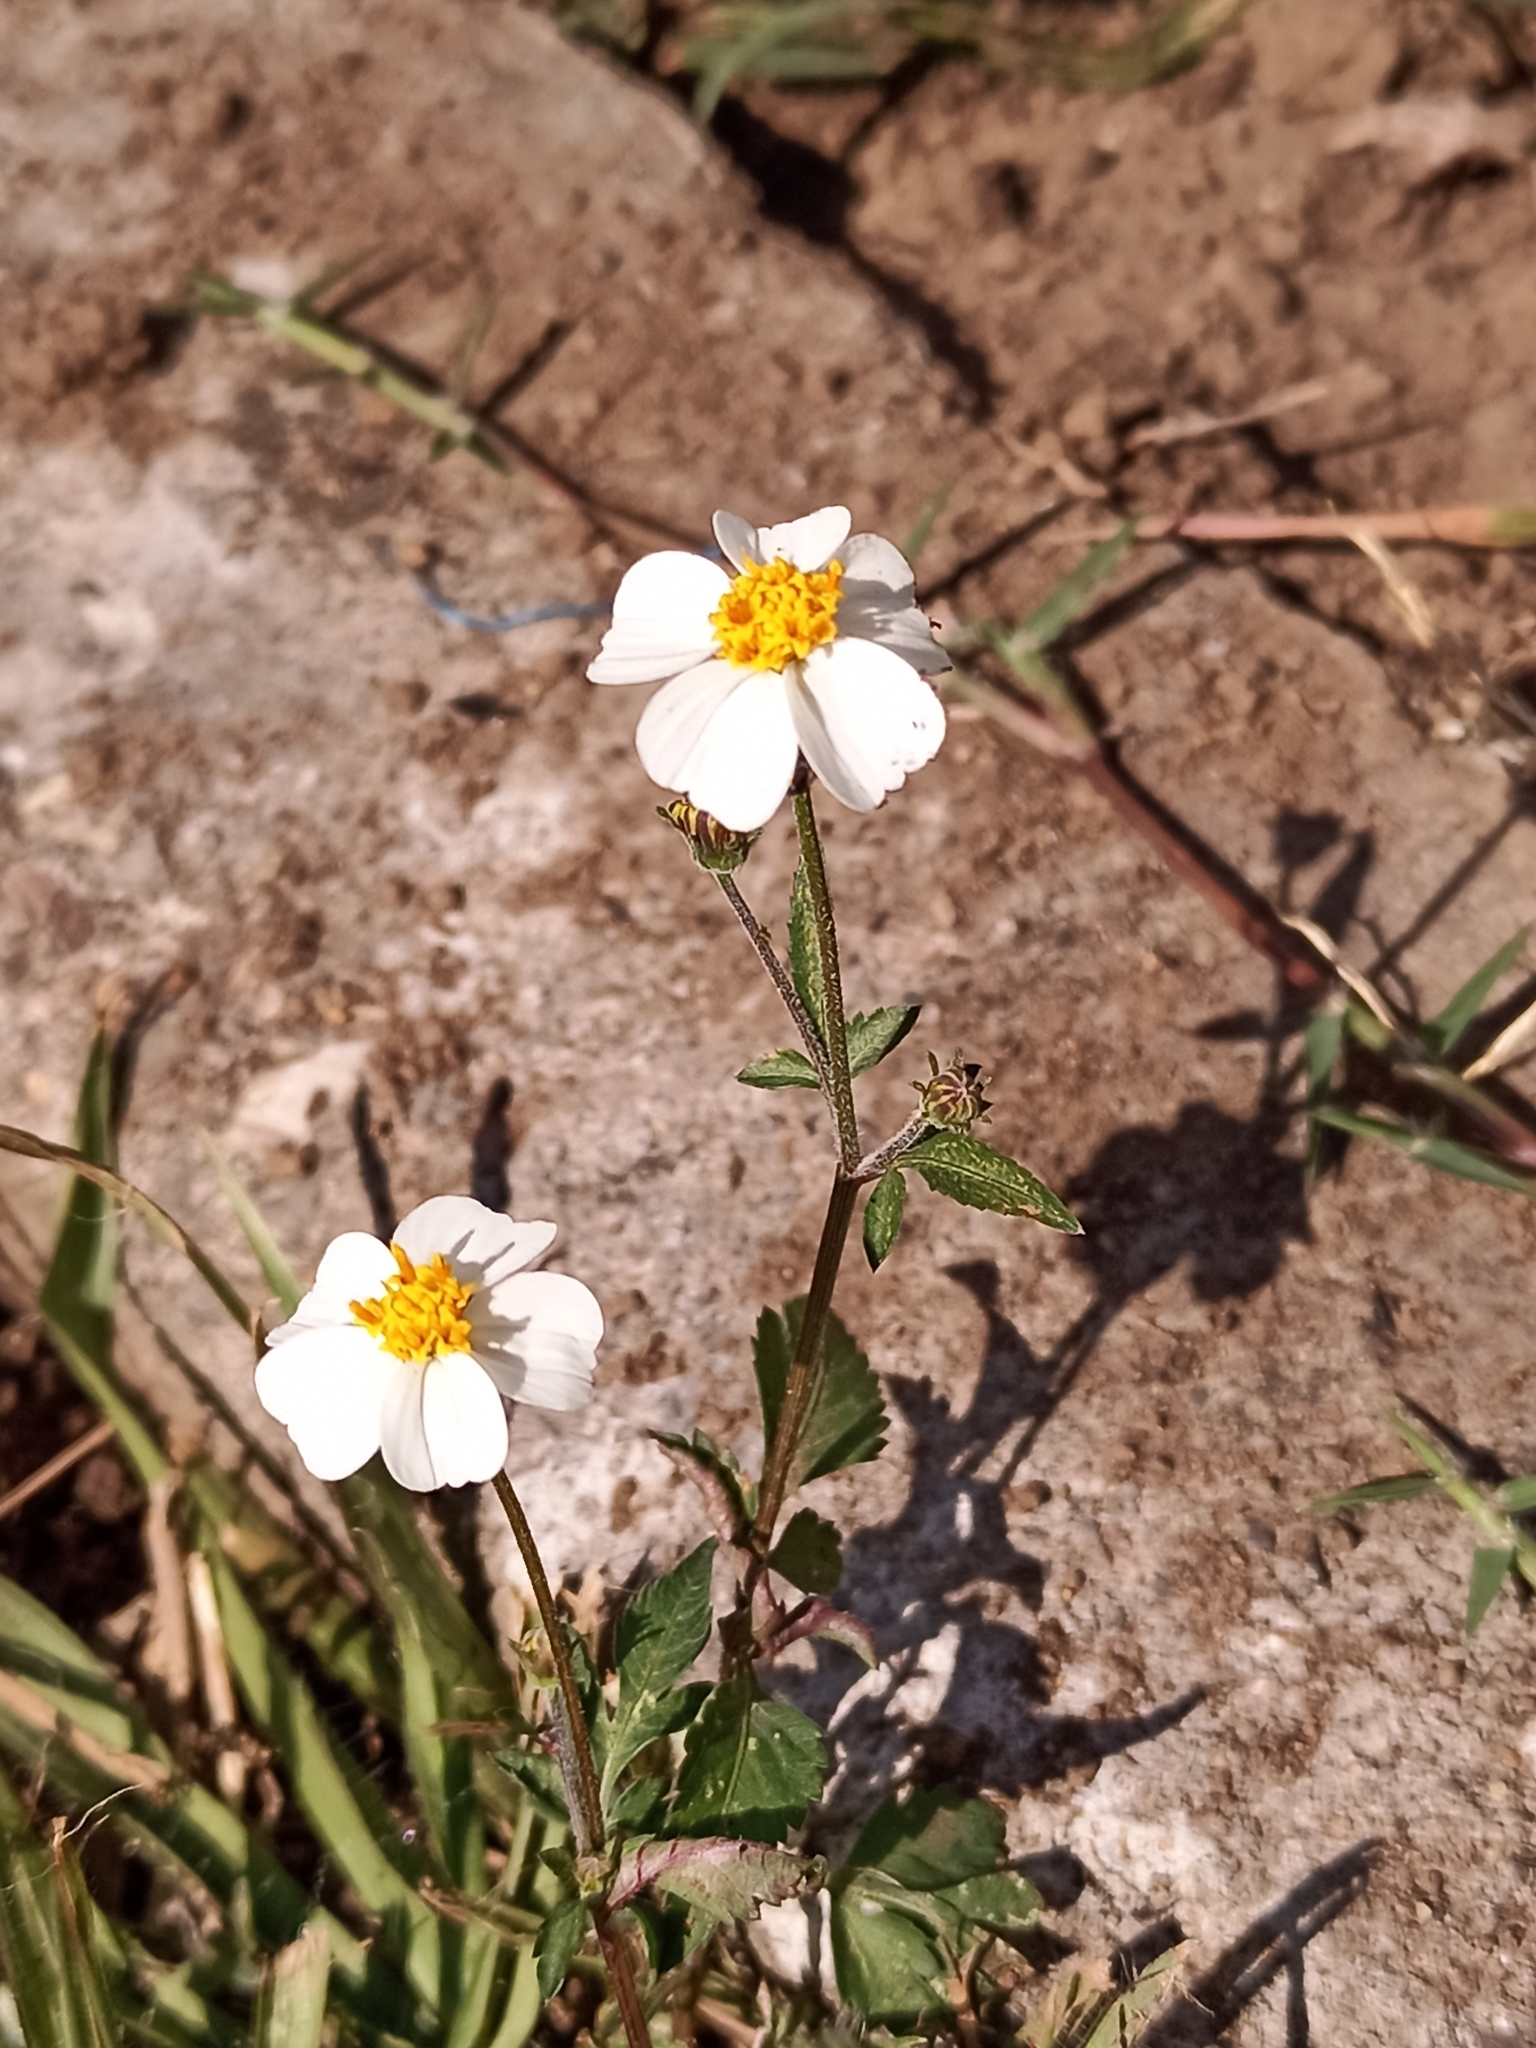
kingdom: Plantae
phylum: Tracheophyta
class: Magnoliopsida
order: Asterales
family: Asteraceae
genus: Bidens
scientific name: Bidens odorata
